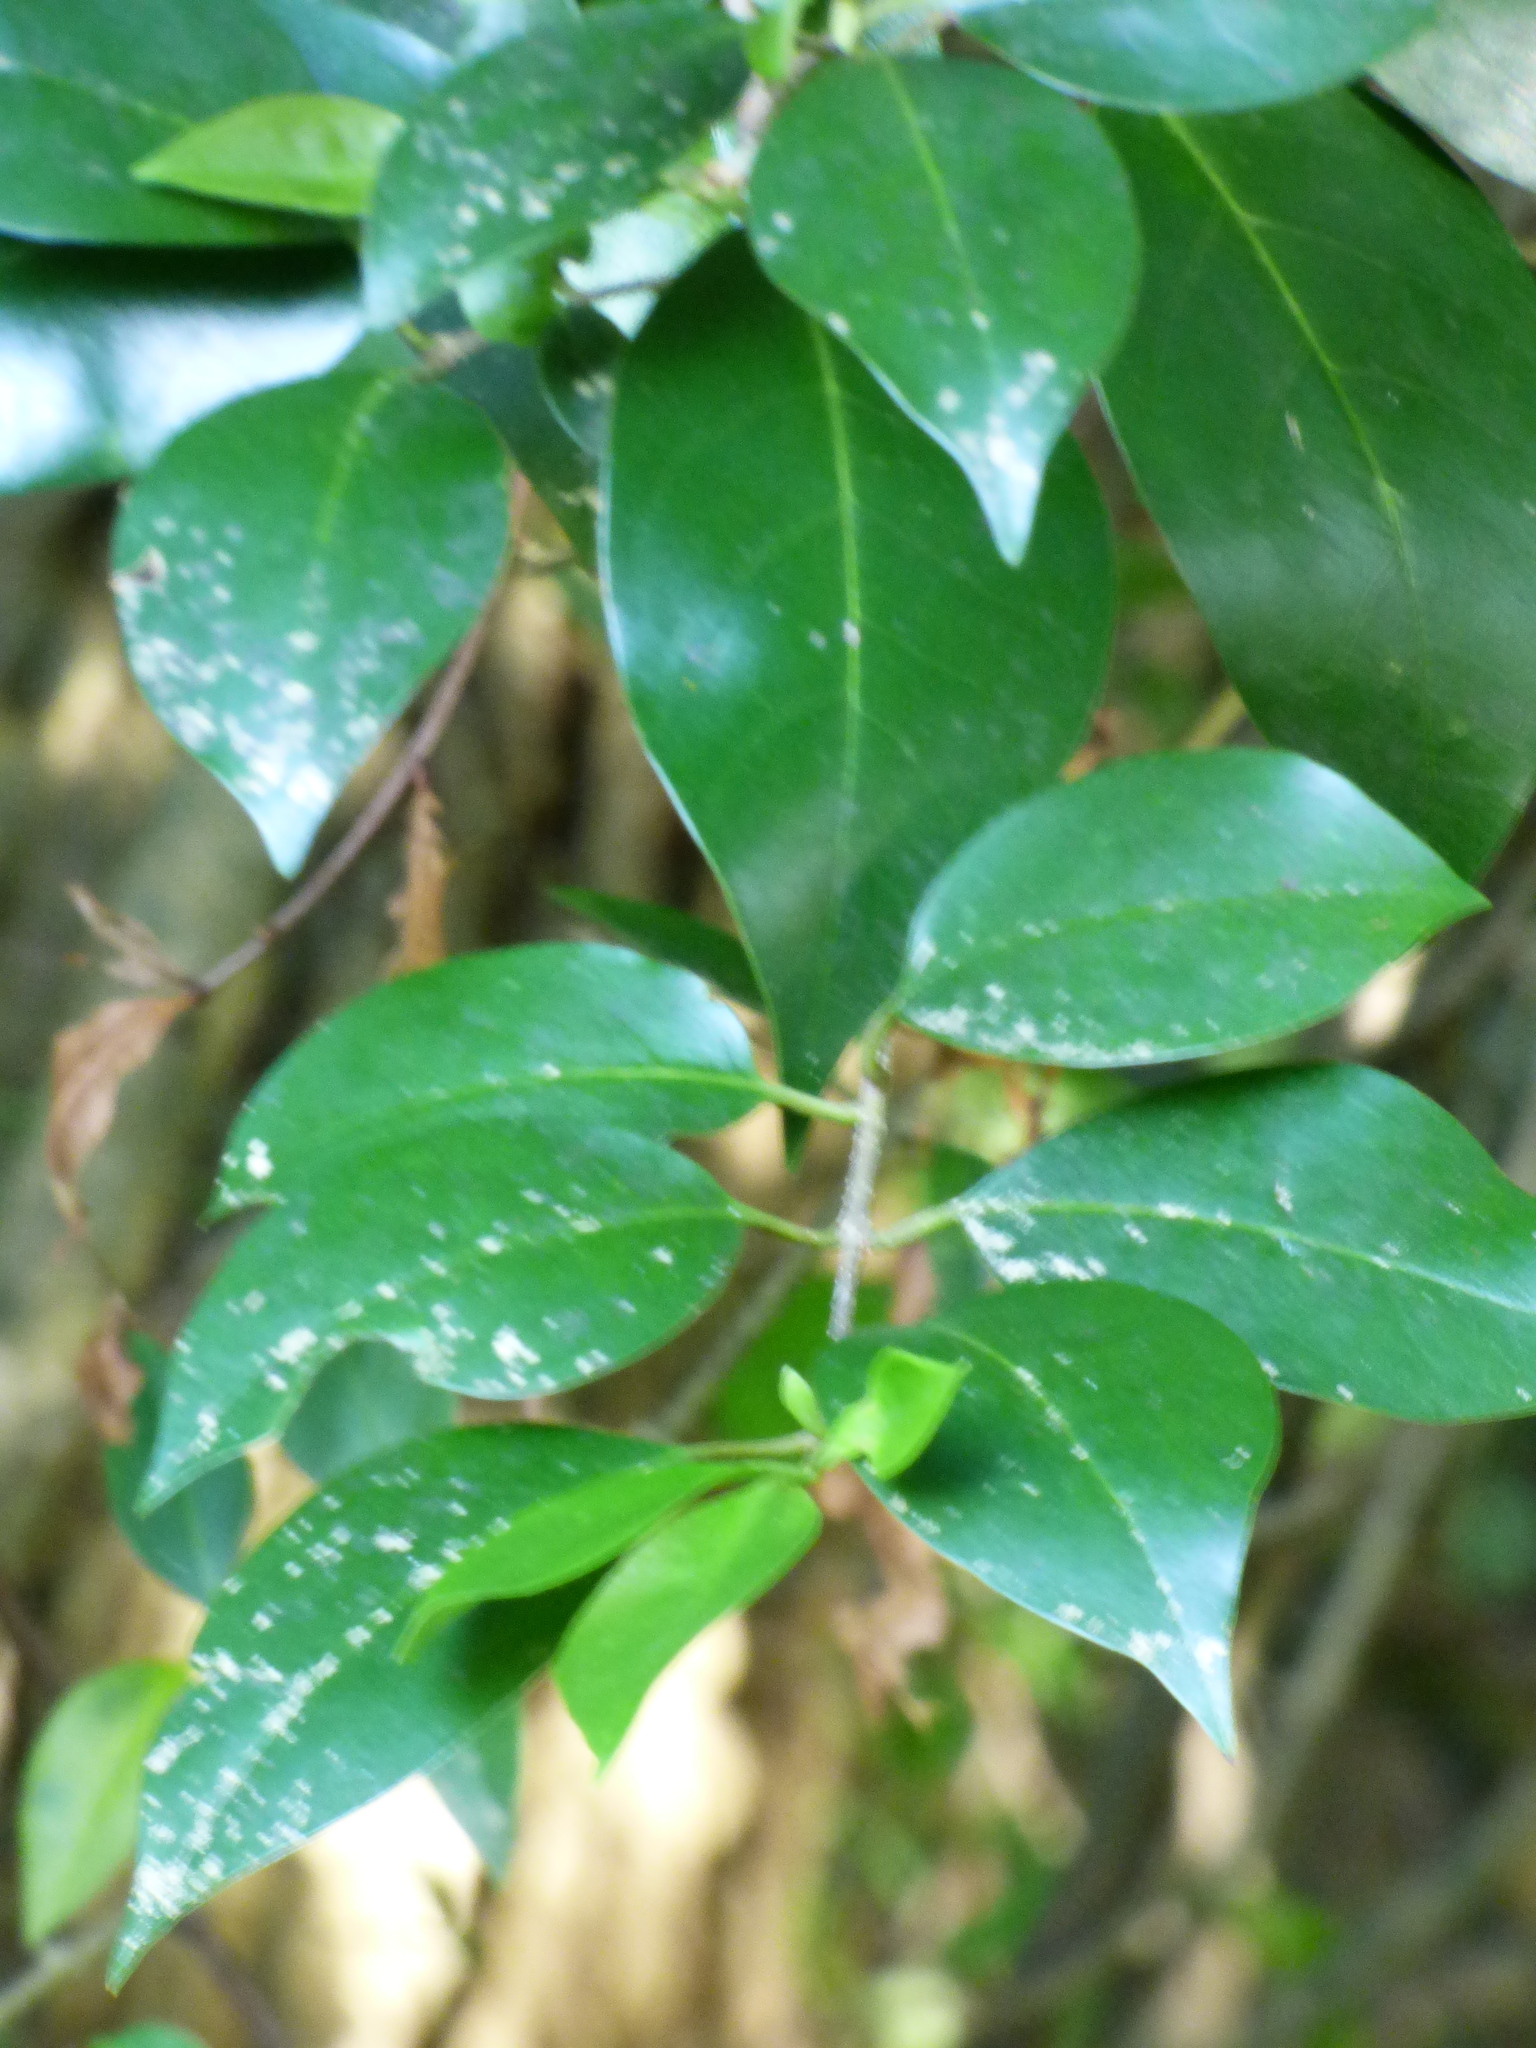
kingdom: Plantae
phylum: Tracheophyta
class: Magnoliopsida
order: Lamiales
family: Oleaceae
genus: Ligustrum
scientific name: Ligustrum lucidum
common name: Glossy privet
